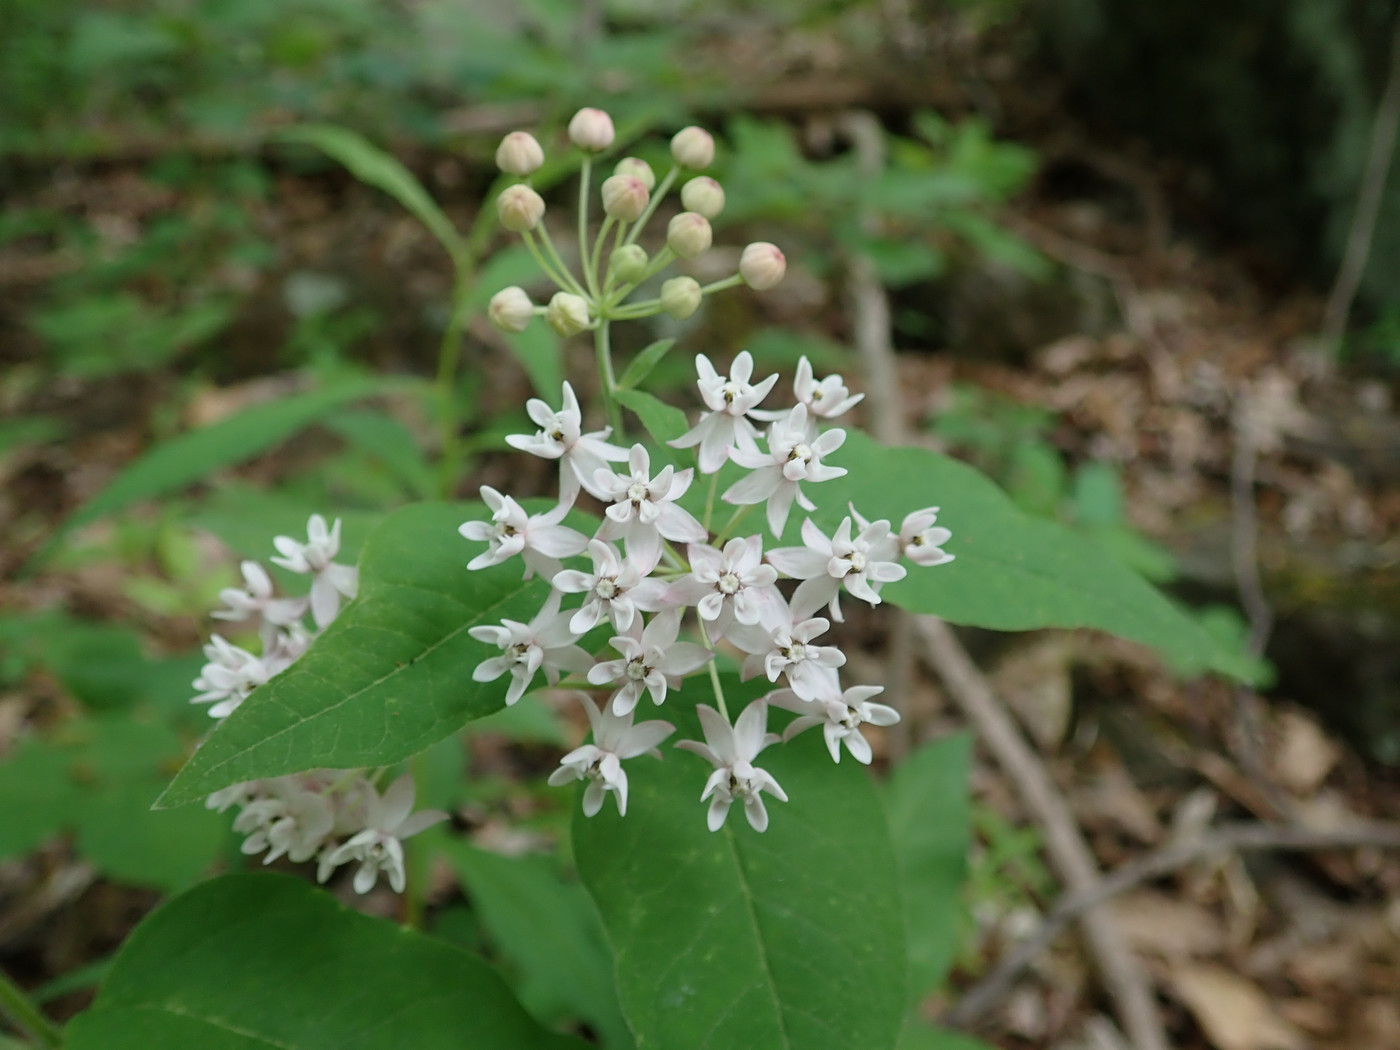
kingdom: Plantae
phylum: Tracheophyta
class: Magnoliopsida
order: Gentianales
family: Apocynaceae
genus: Asclepias
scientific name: Asclepias quadrifolia
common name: Whorled milkweed
